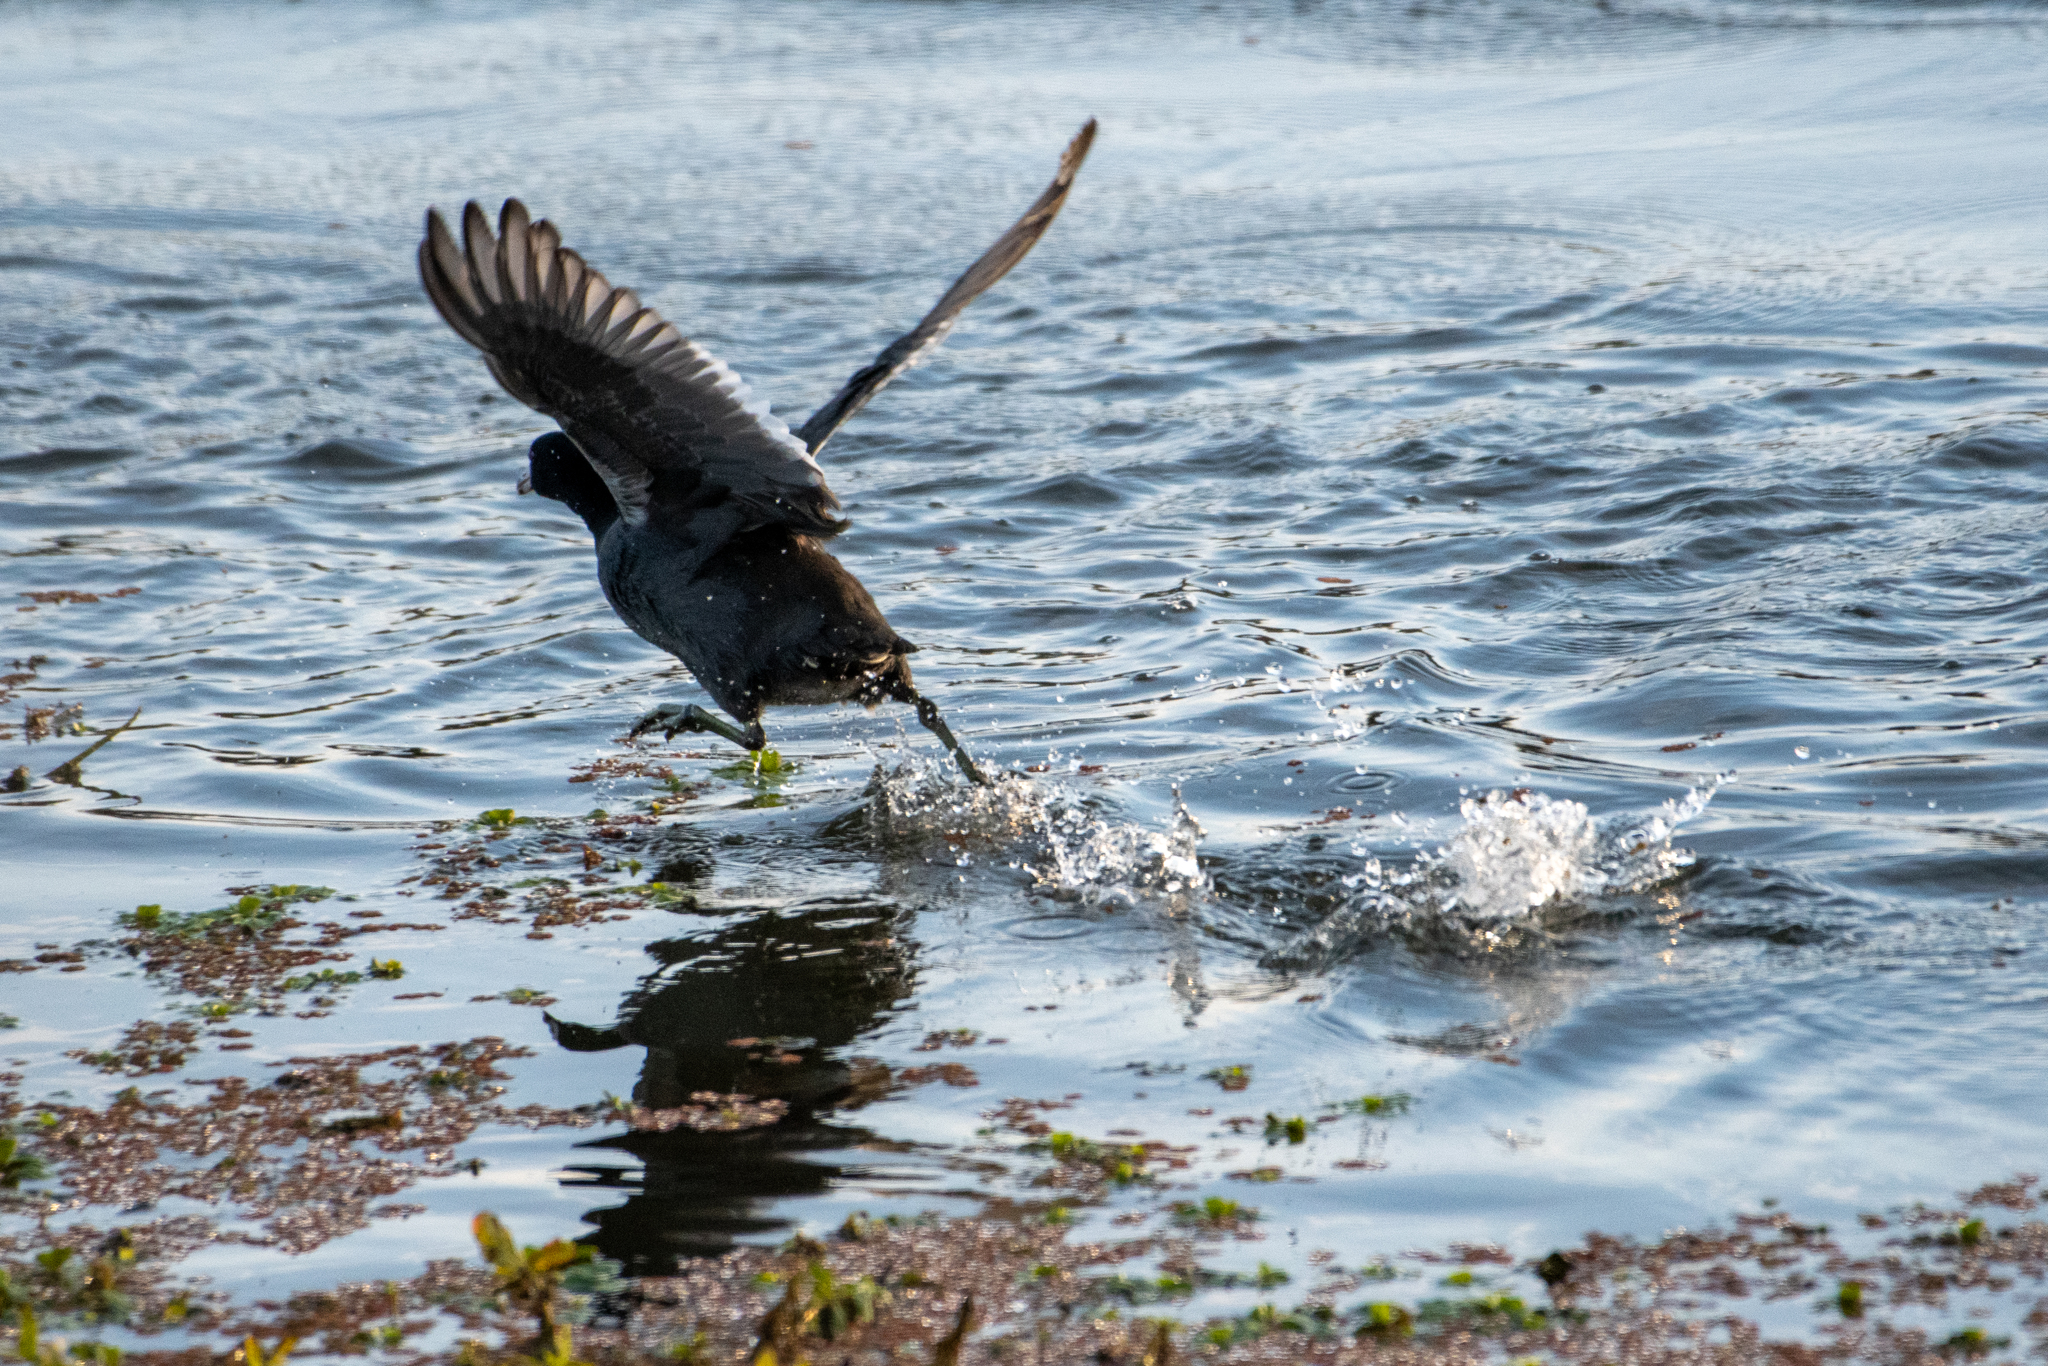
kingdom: Animalia
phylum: Chordata
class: Aves
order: Gruiformes
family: Rallidae
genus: Fulica
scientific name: Fulica americana
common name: American coot
